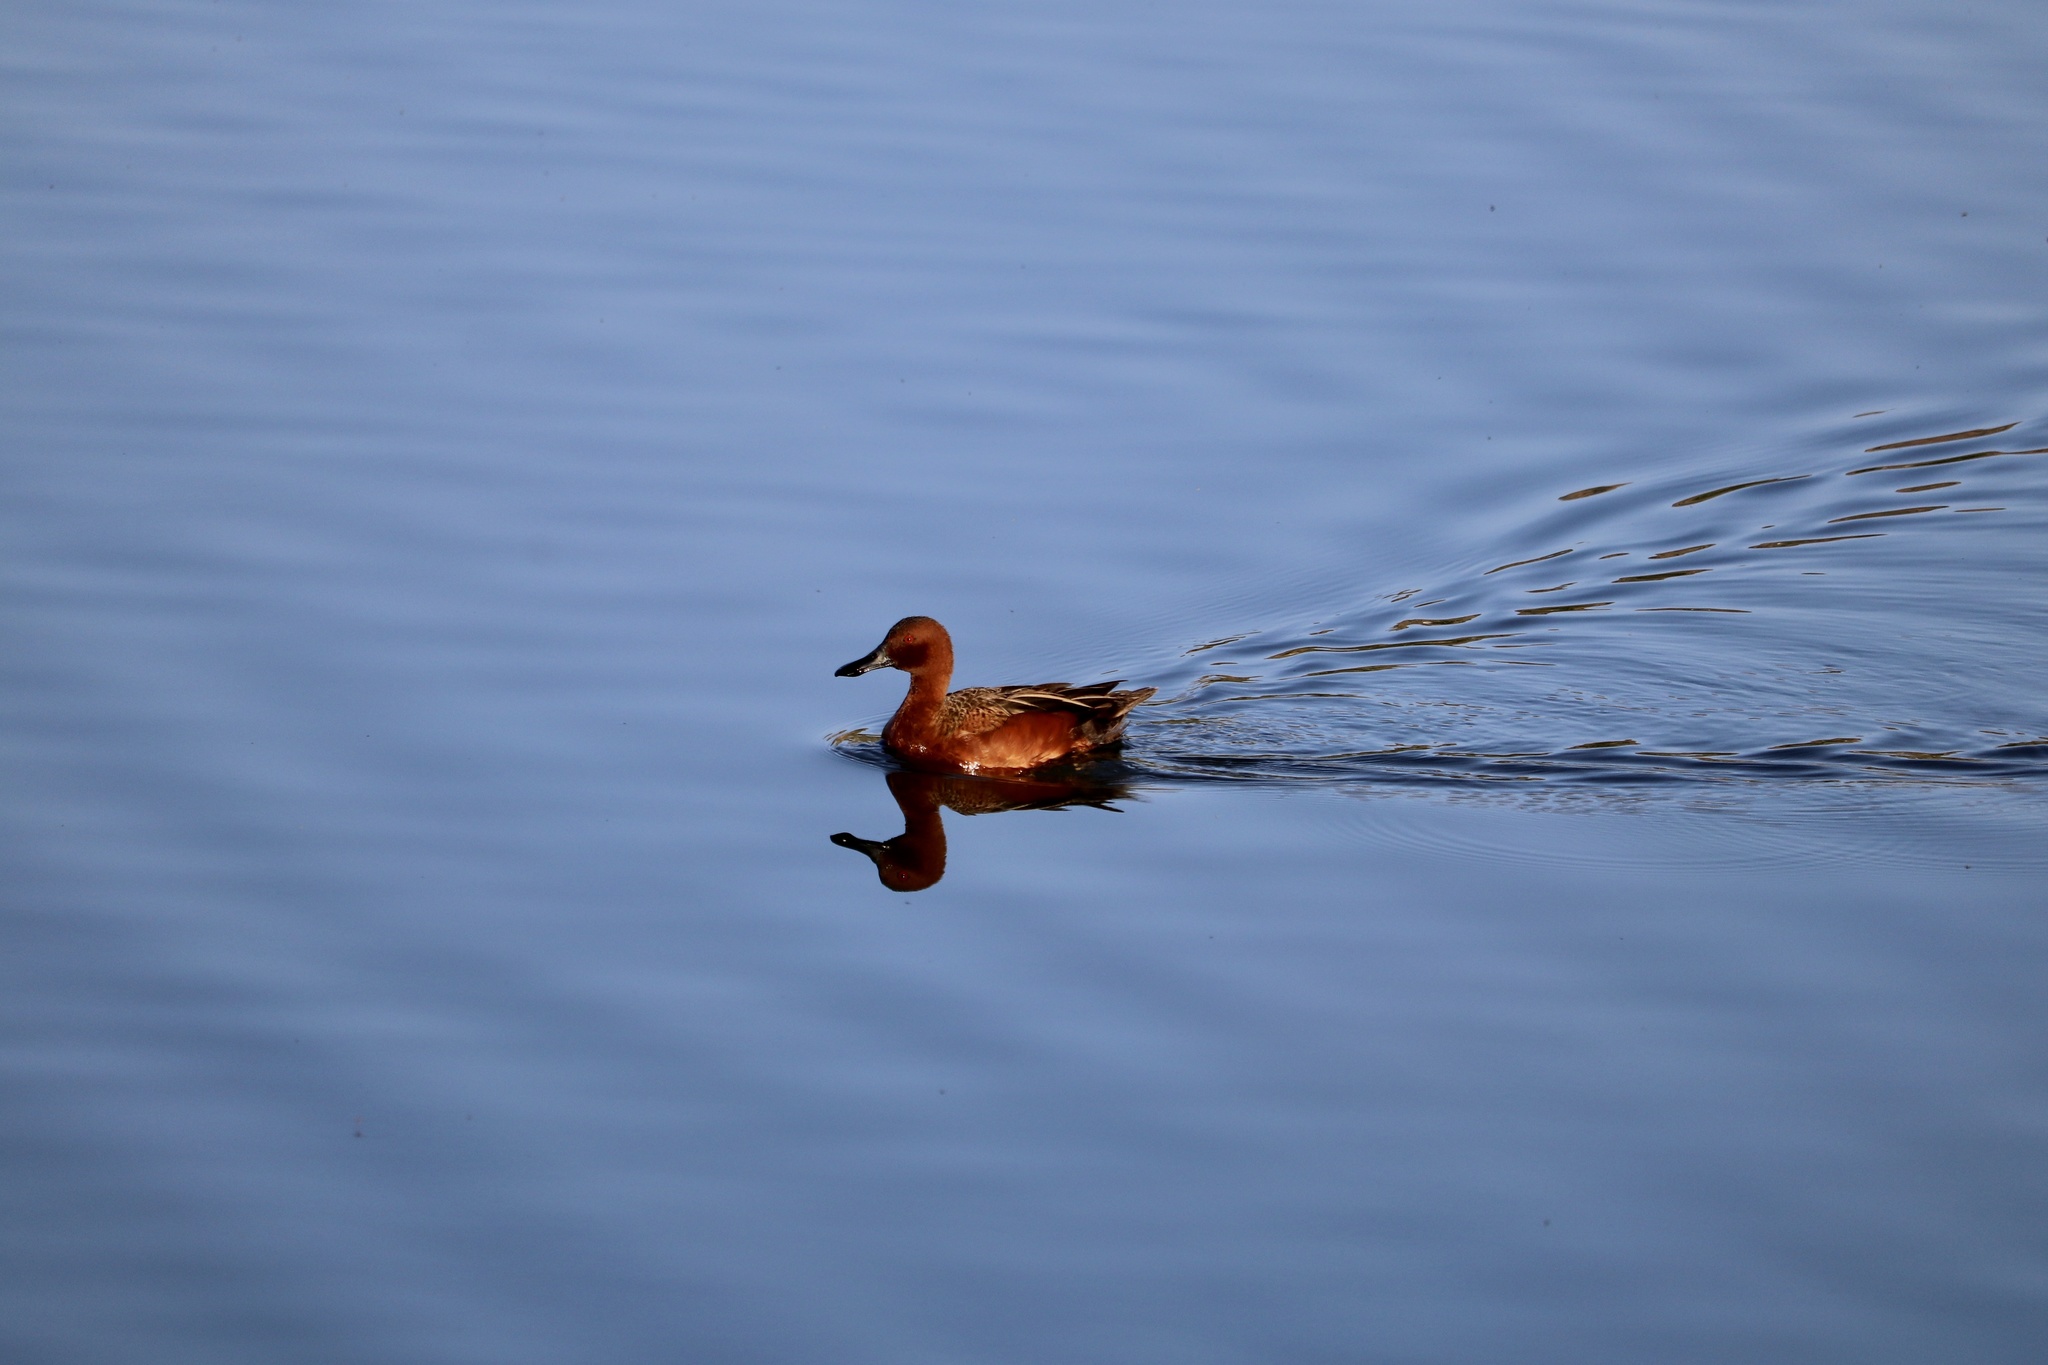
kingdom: Animalia
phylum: Chordata
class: Aves
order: Anseriformes
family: Anatidae
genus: Spatula
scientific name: Spatula cyanoptera
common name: Cinnamon teal
